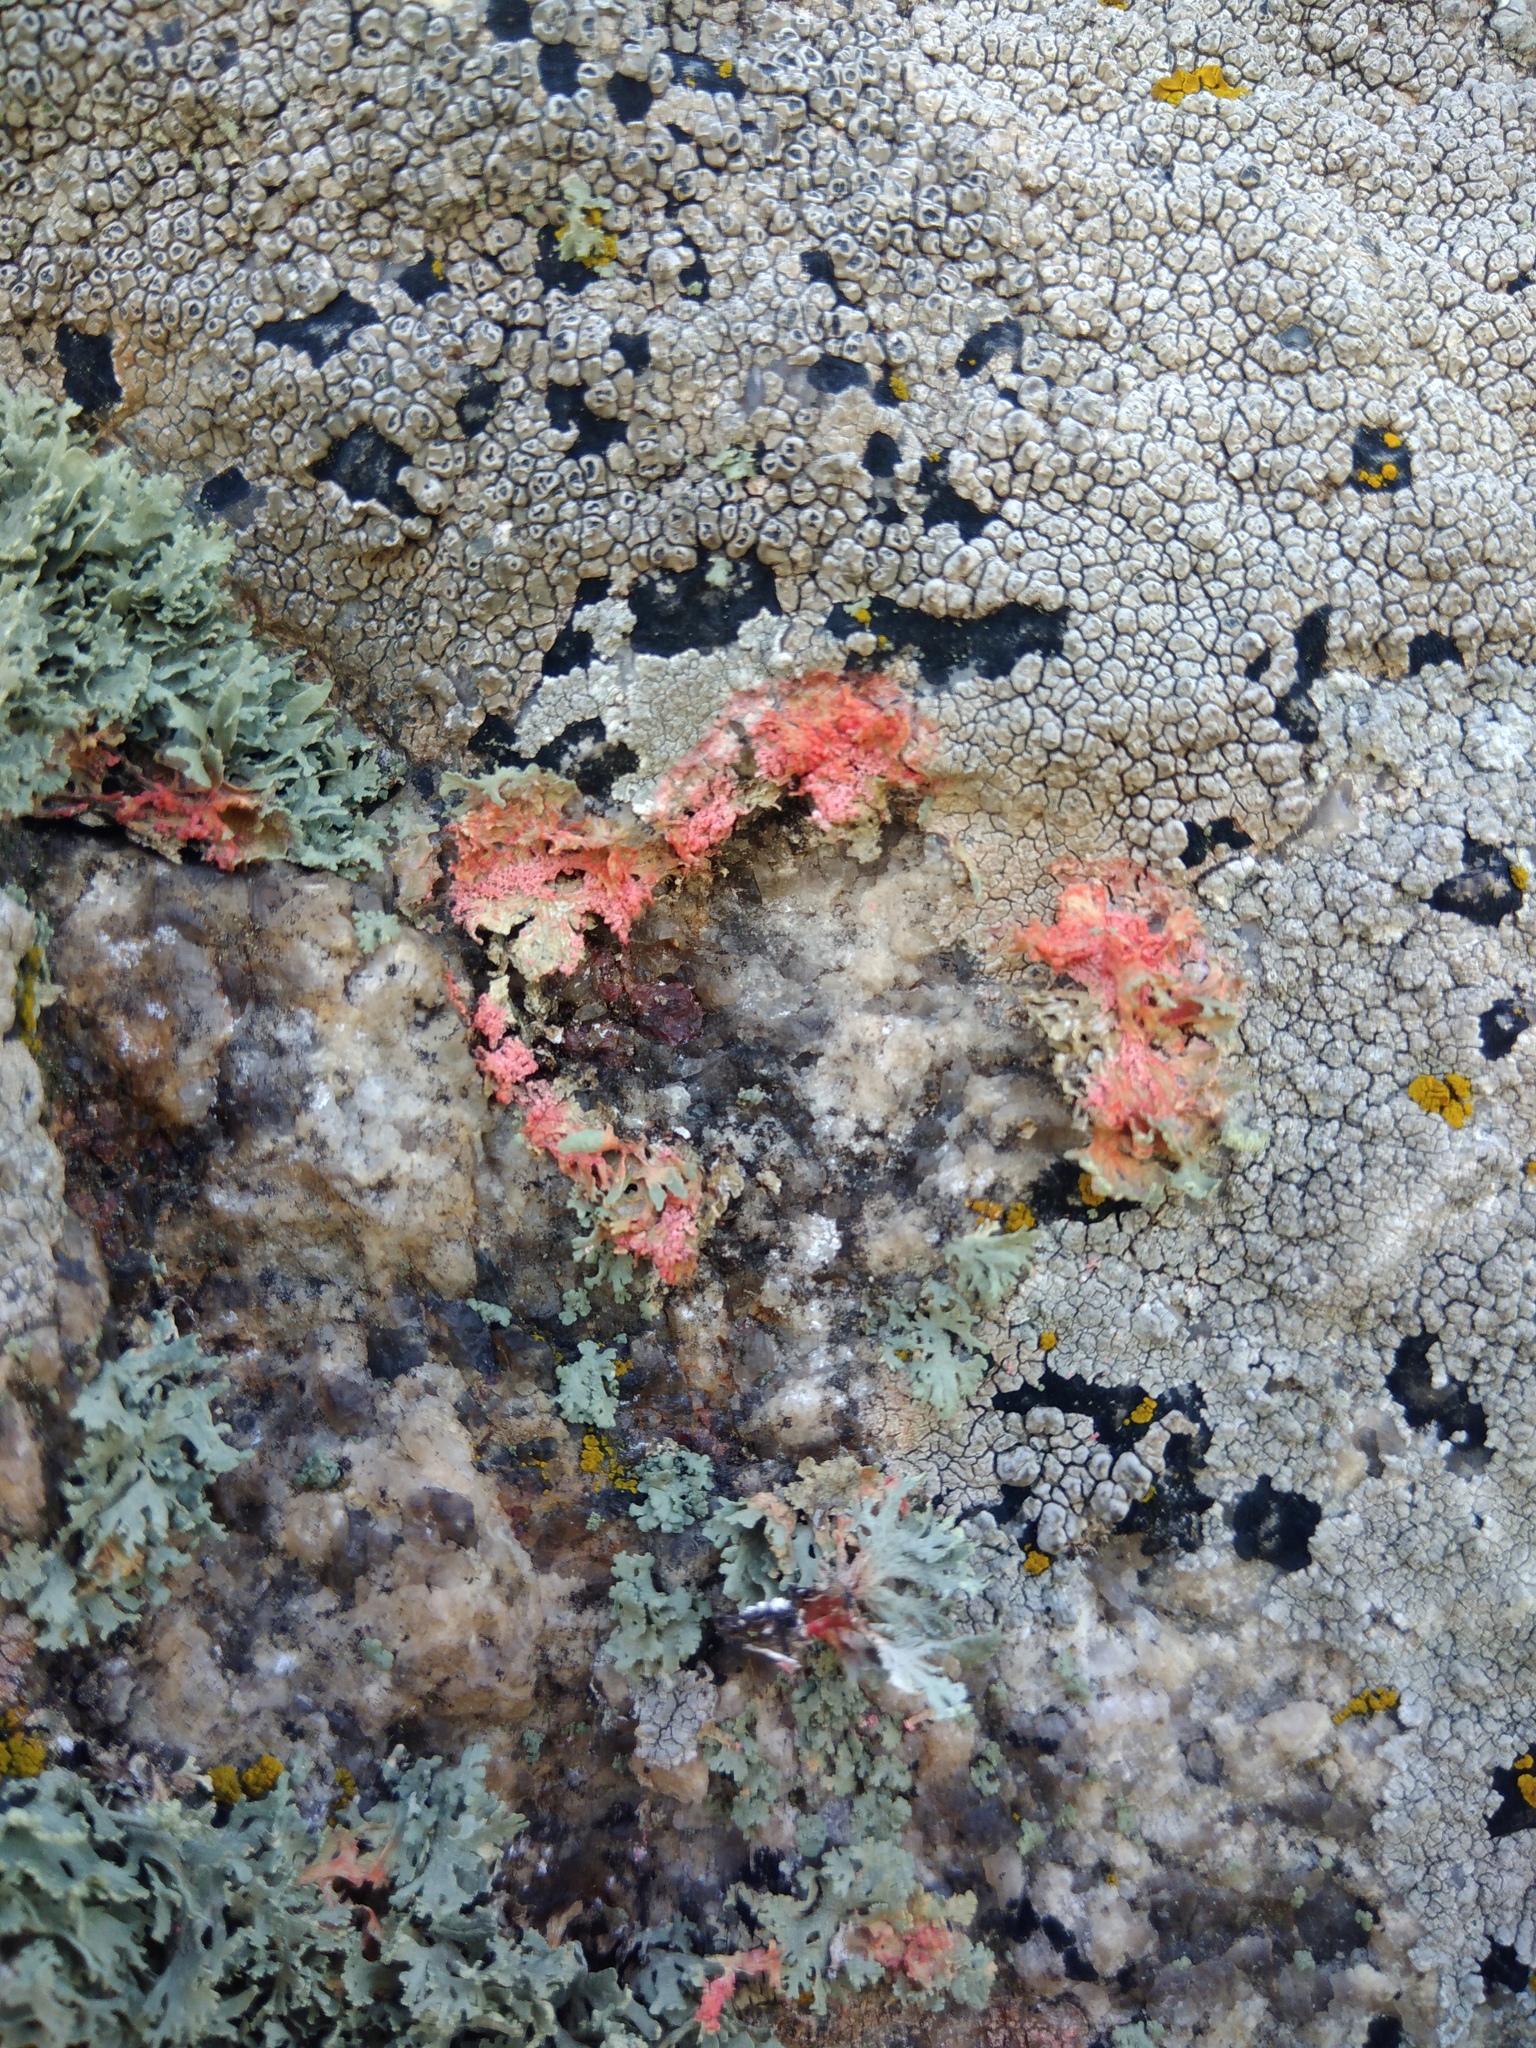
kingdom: Fungi
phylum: Basidiomycota
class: Agaricomycetes
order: Corticiales
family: Corticiaceae
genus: Marchandiomyces
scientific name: Marchandiomyces corallinus
